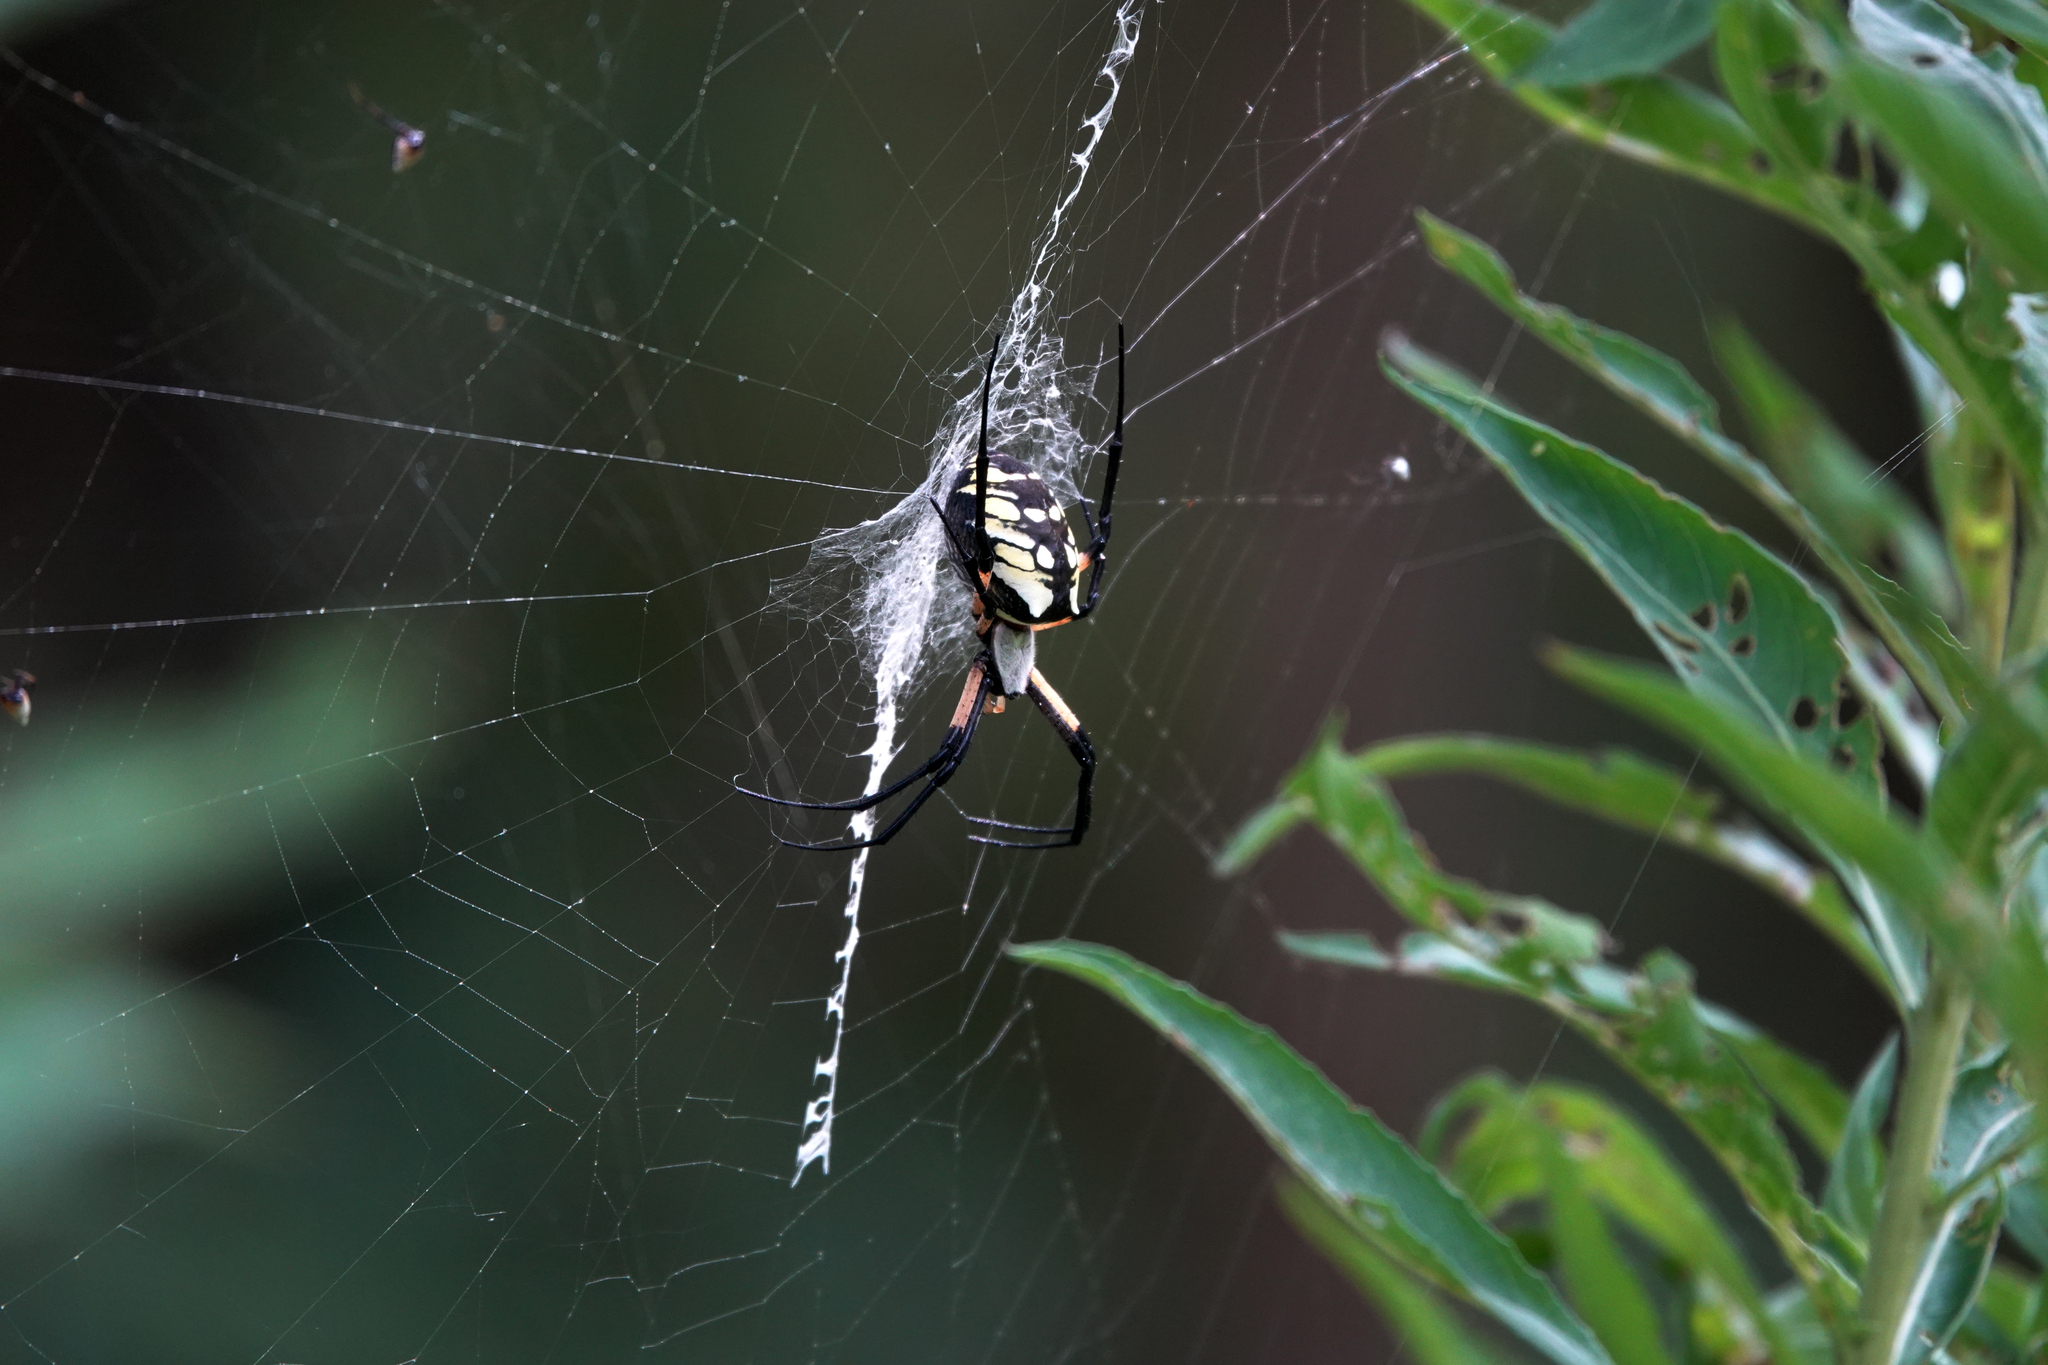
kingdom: Animalia
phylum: Arthropoda
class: Arachnida
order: Araneae
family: Araneidae
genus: Argiope
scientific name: Argiope aurantia
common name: Orb weavers
